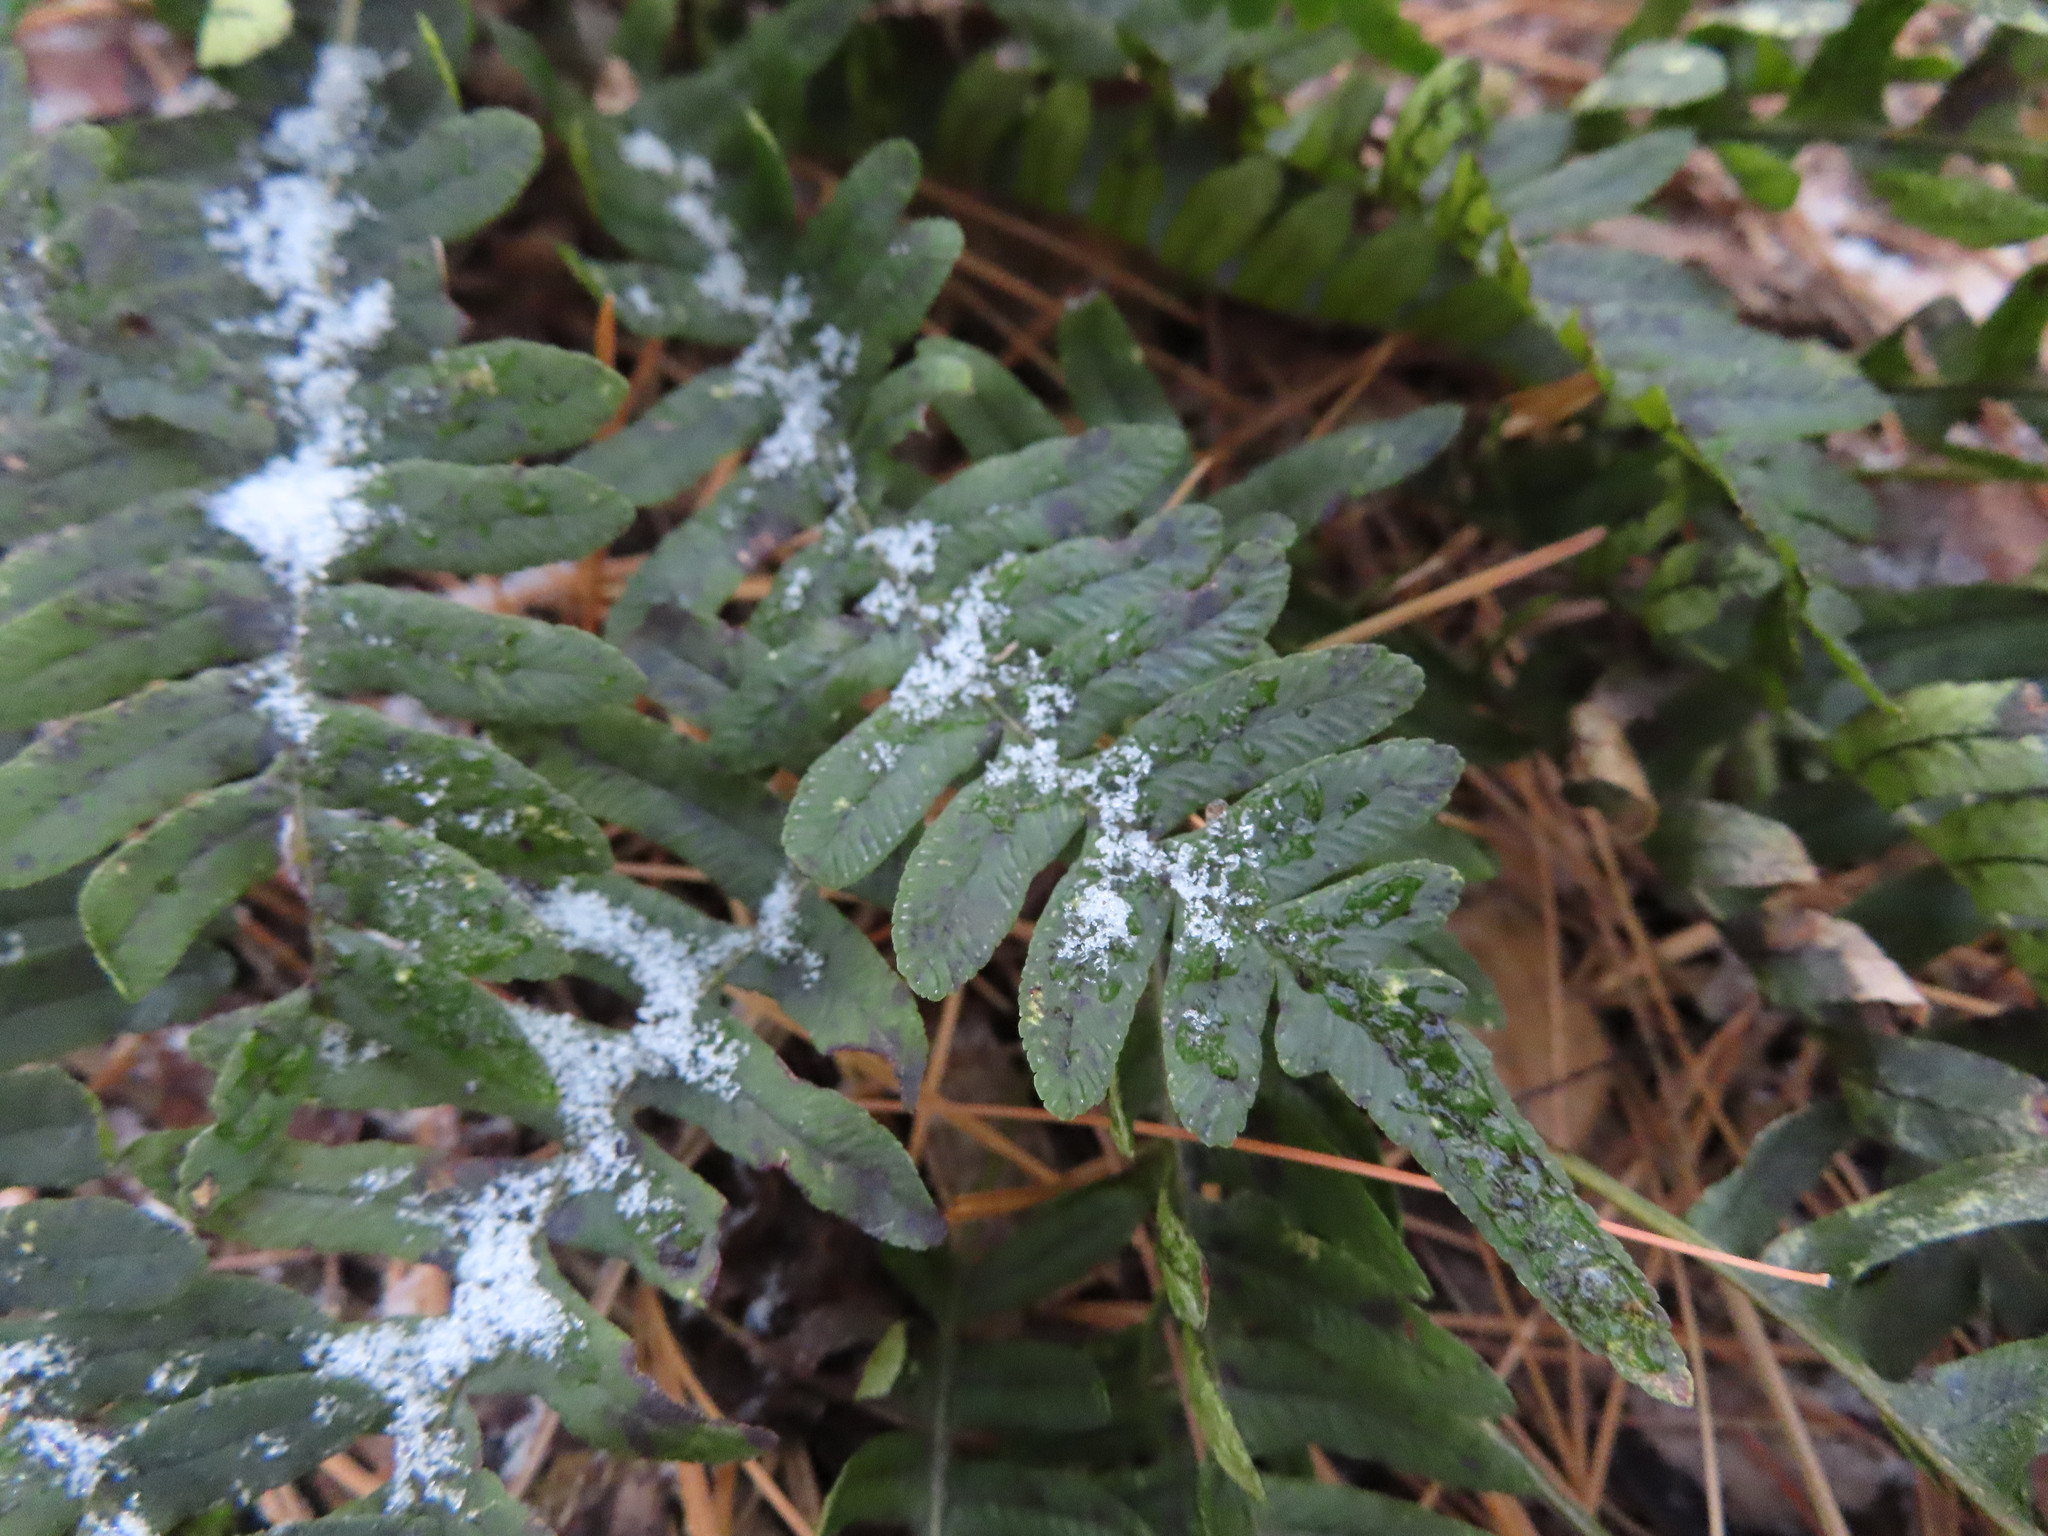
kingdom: Plantae
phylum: Tracheophyta
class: Polypodiopsida
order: Polypodiales
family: Polypodiaceae
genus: Polypodium
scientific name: Polypodium virginianum
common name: American wall fern
